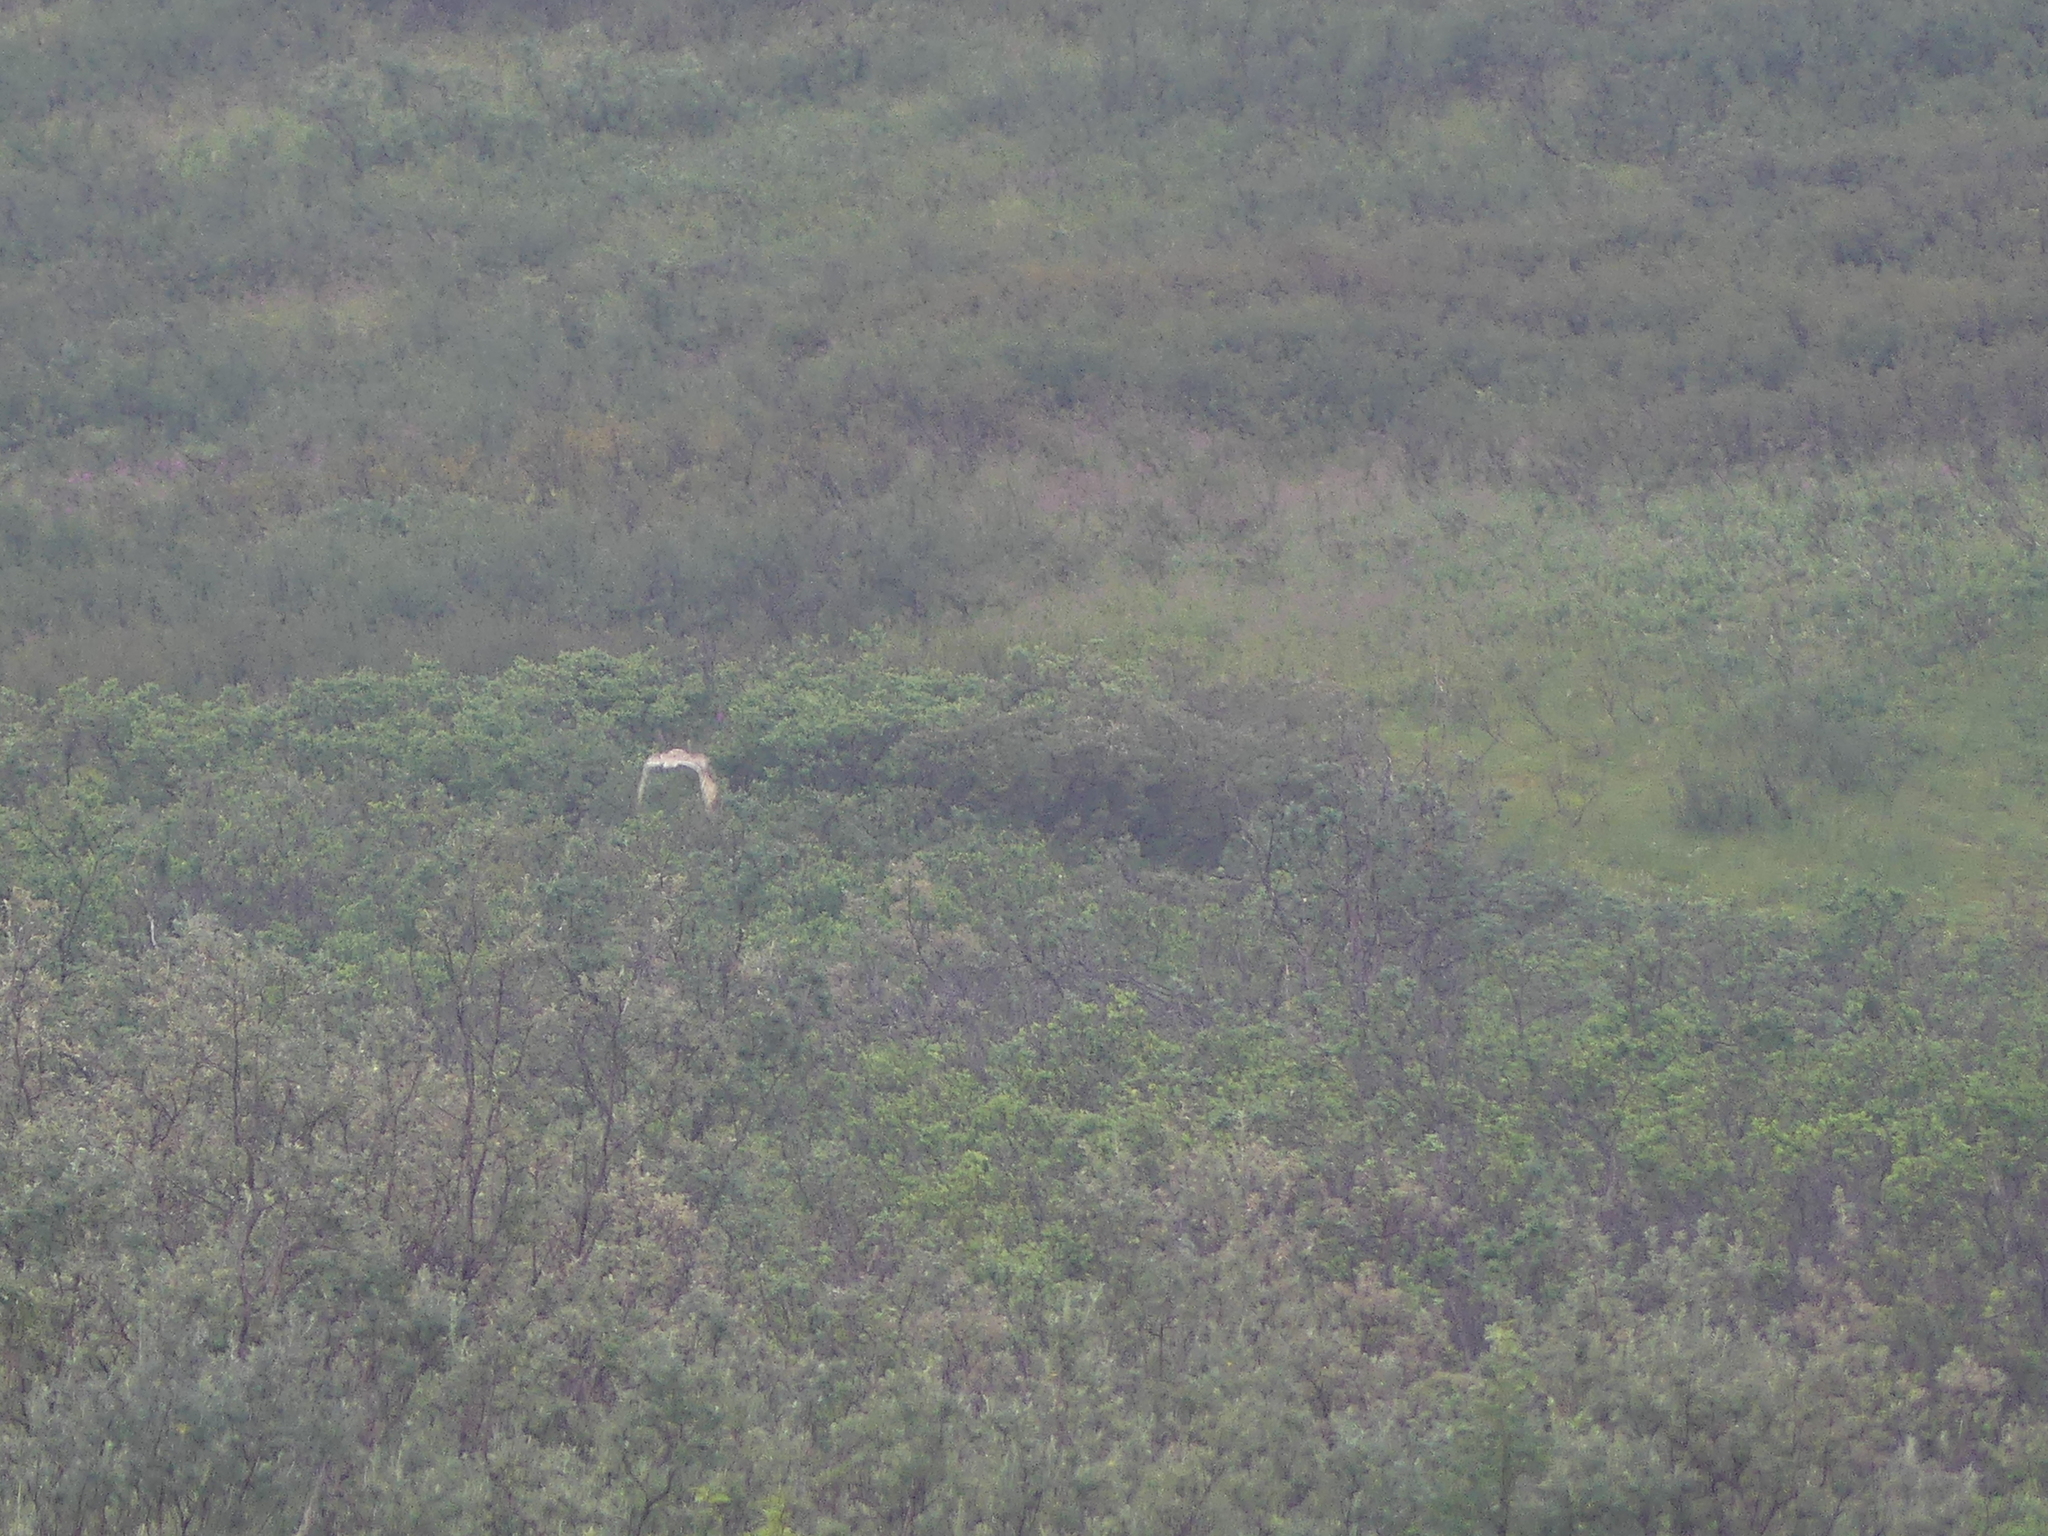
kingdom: Animalia
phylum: Chordata
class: Aves
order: Strigiformes
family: Strigidae
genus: Asio
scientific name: Asio flammeus
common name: Short-eared owl
